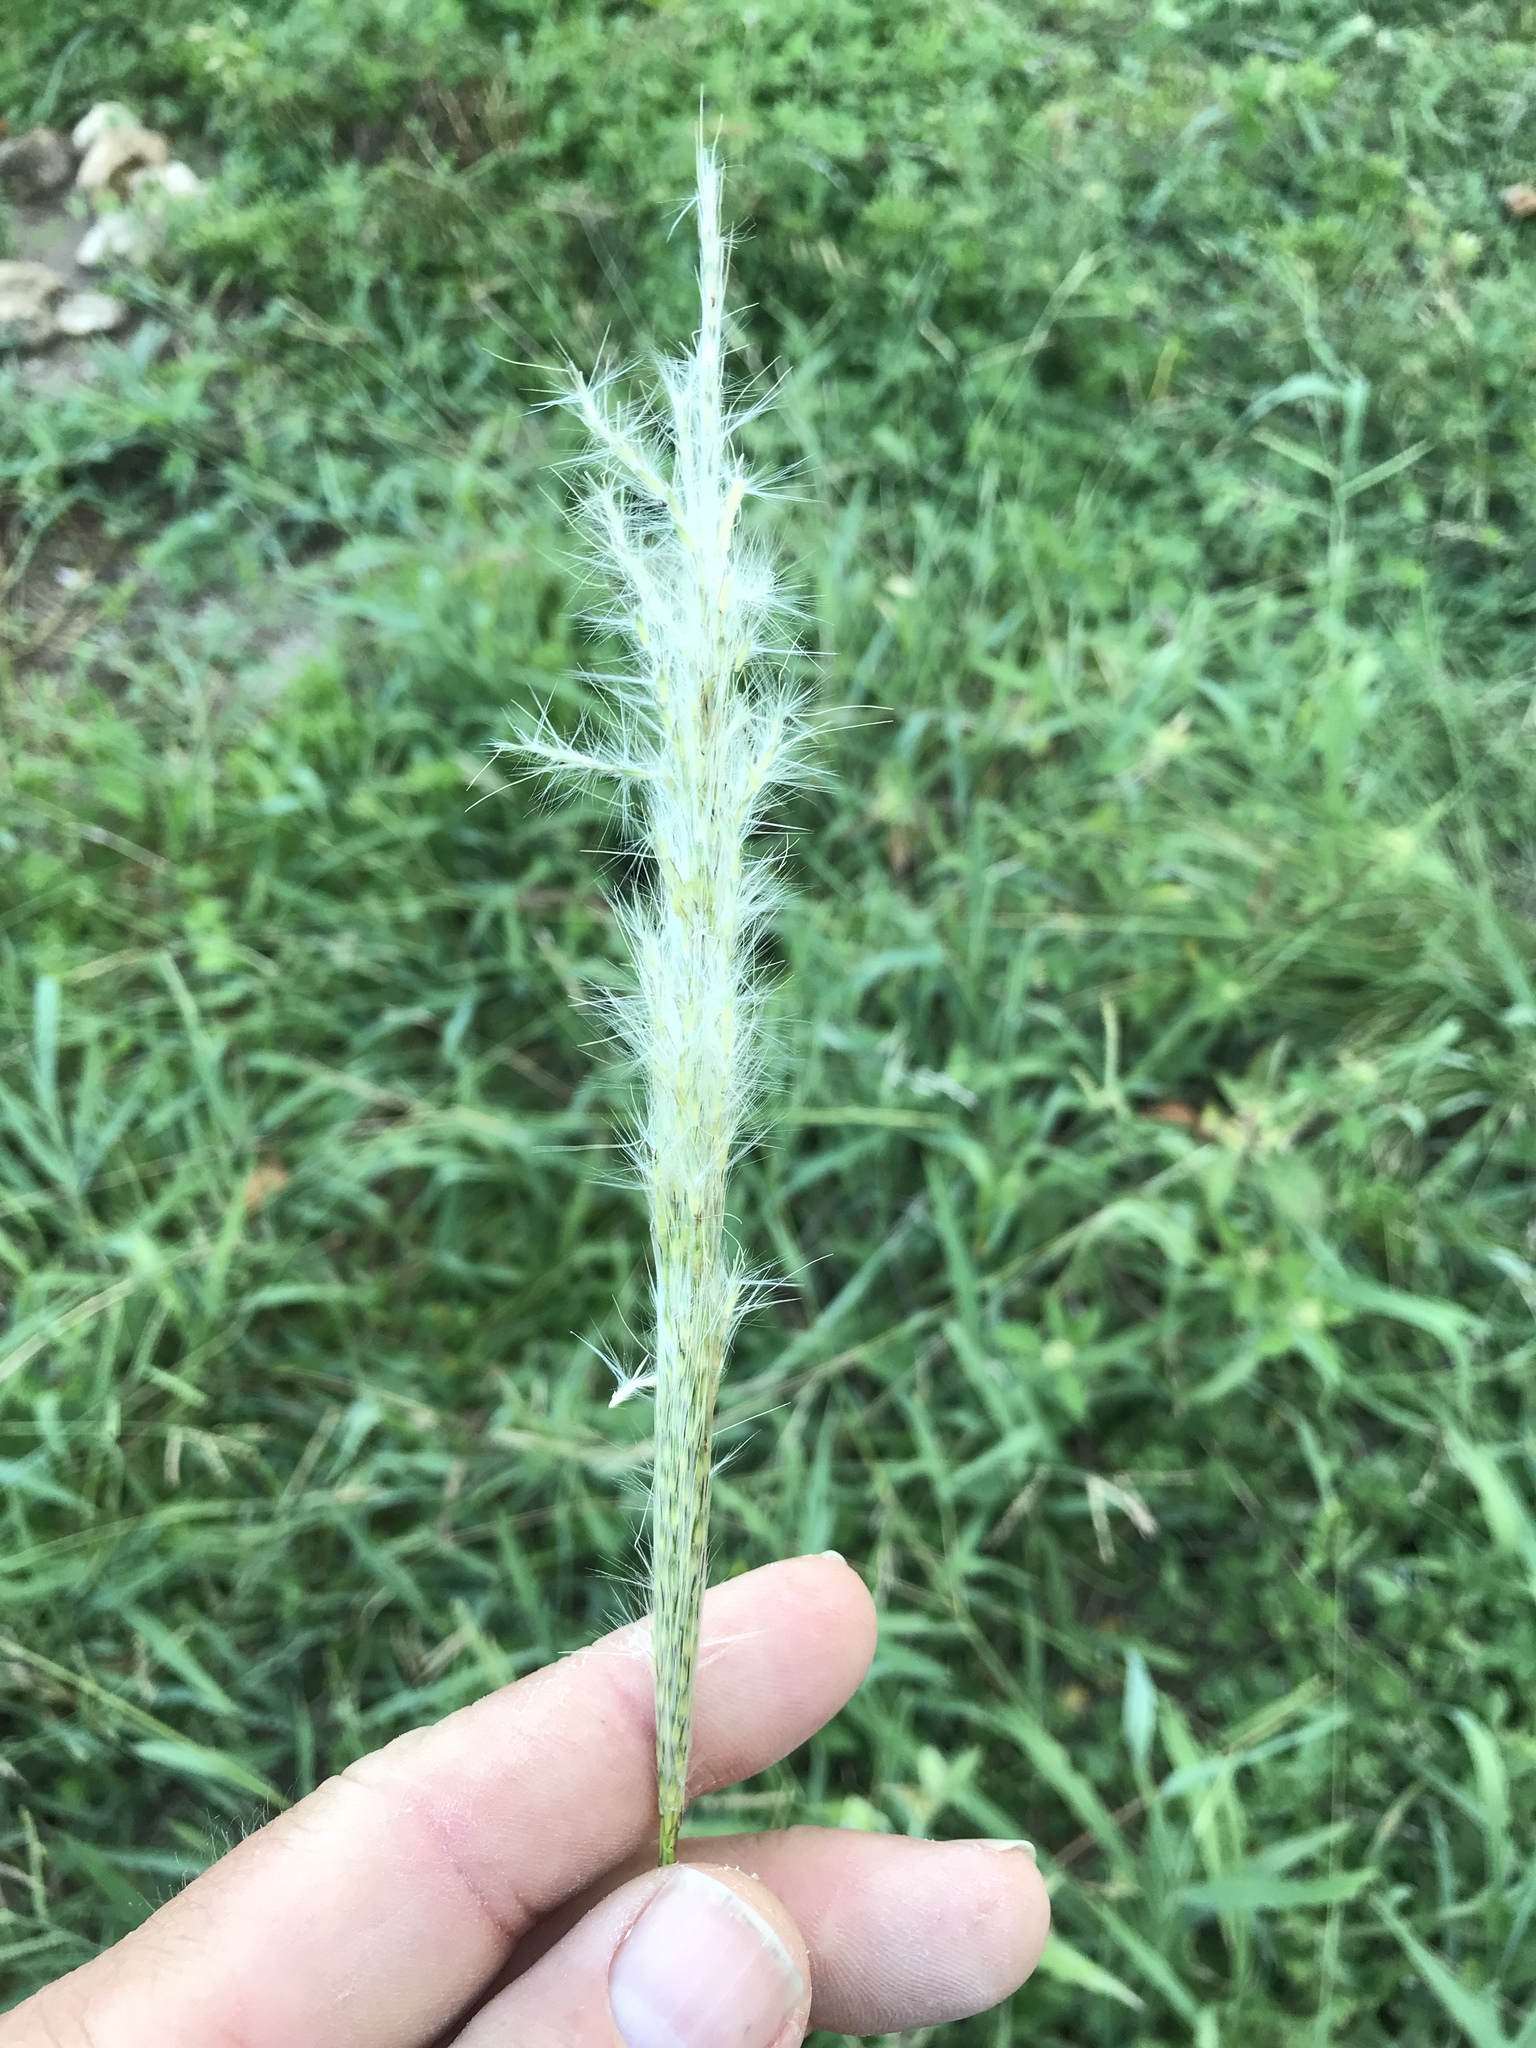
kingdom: Plantae
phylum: Tracheophyta
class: Liliopsida
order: Poales
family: Poaceae
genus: Bothriochloa
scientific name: Bothriochloa torreyana
